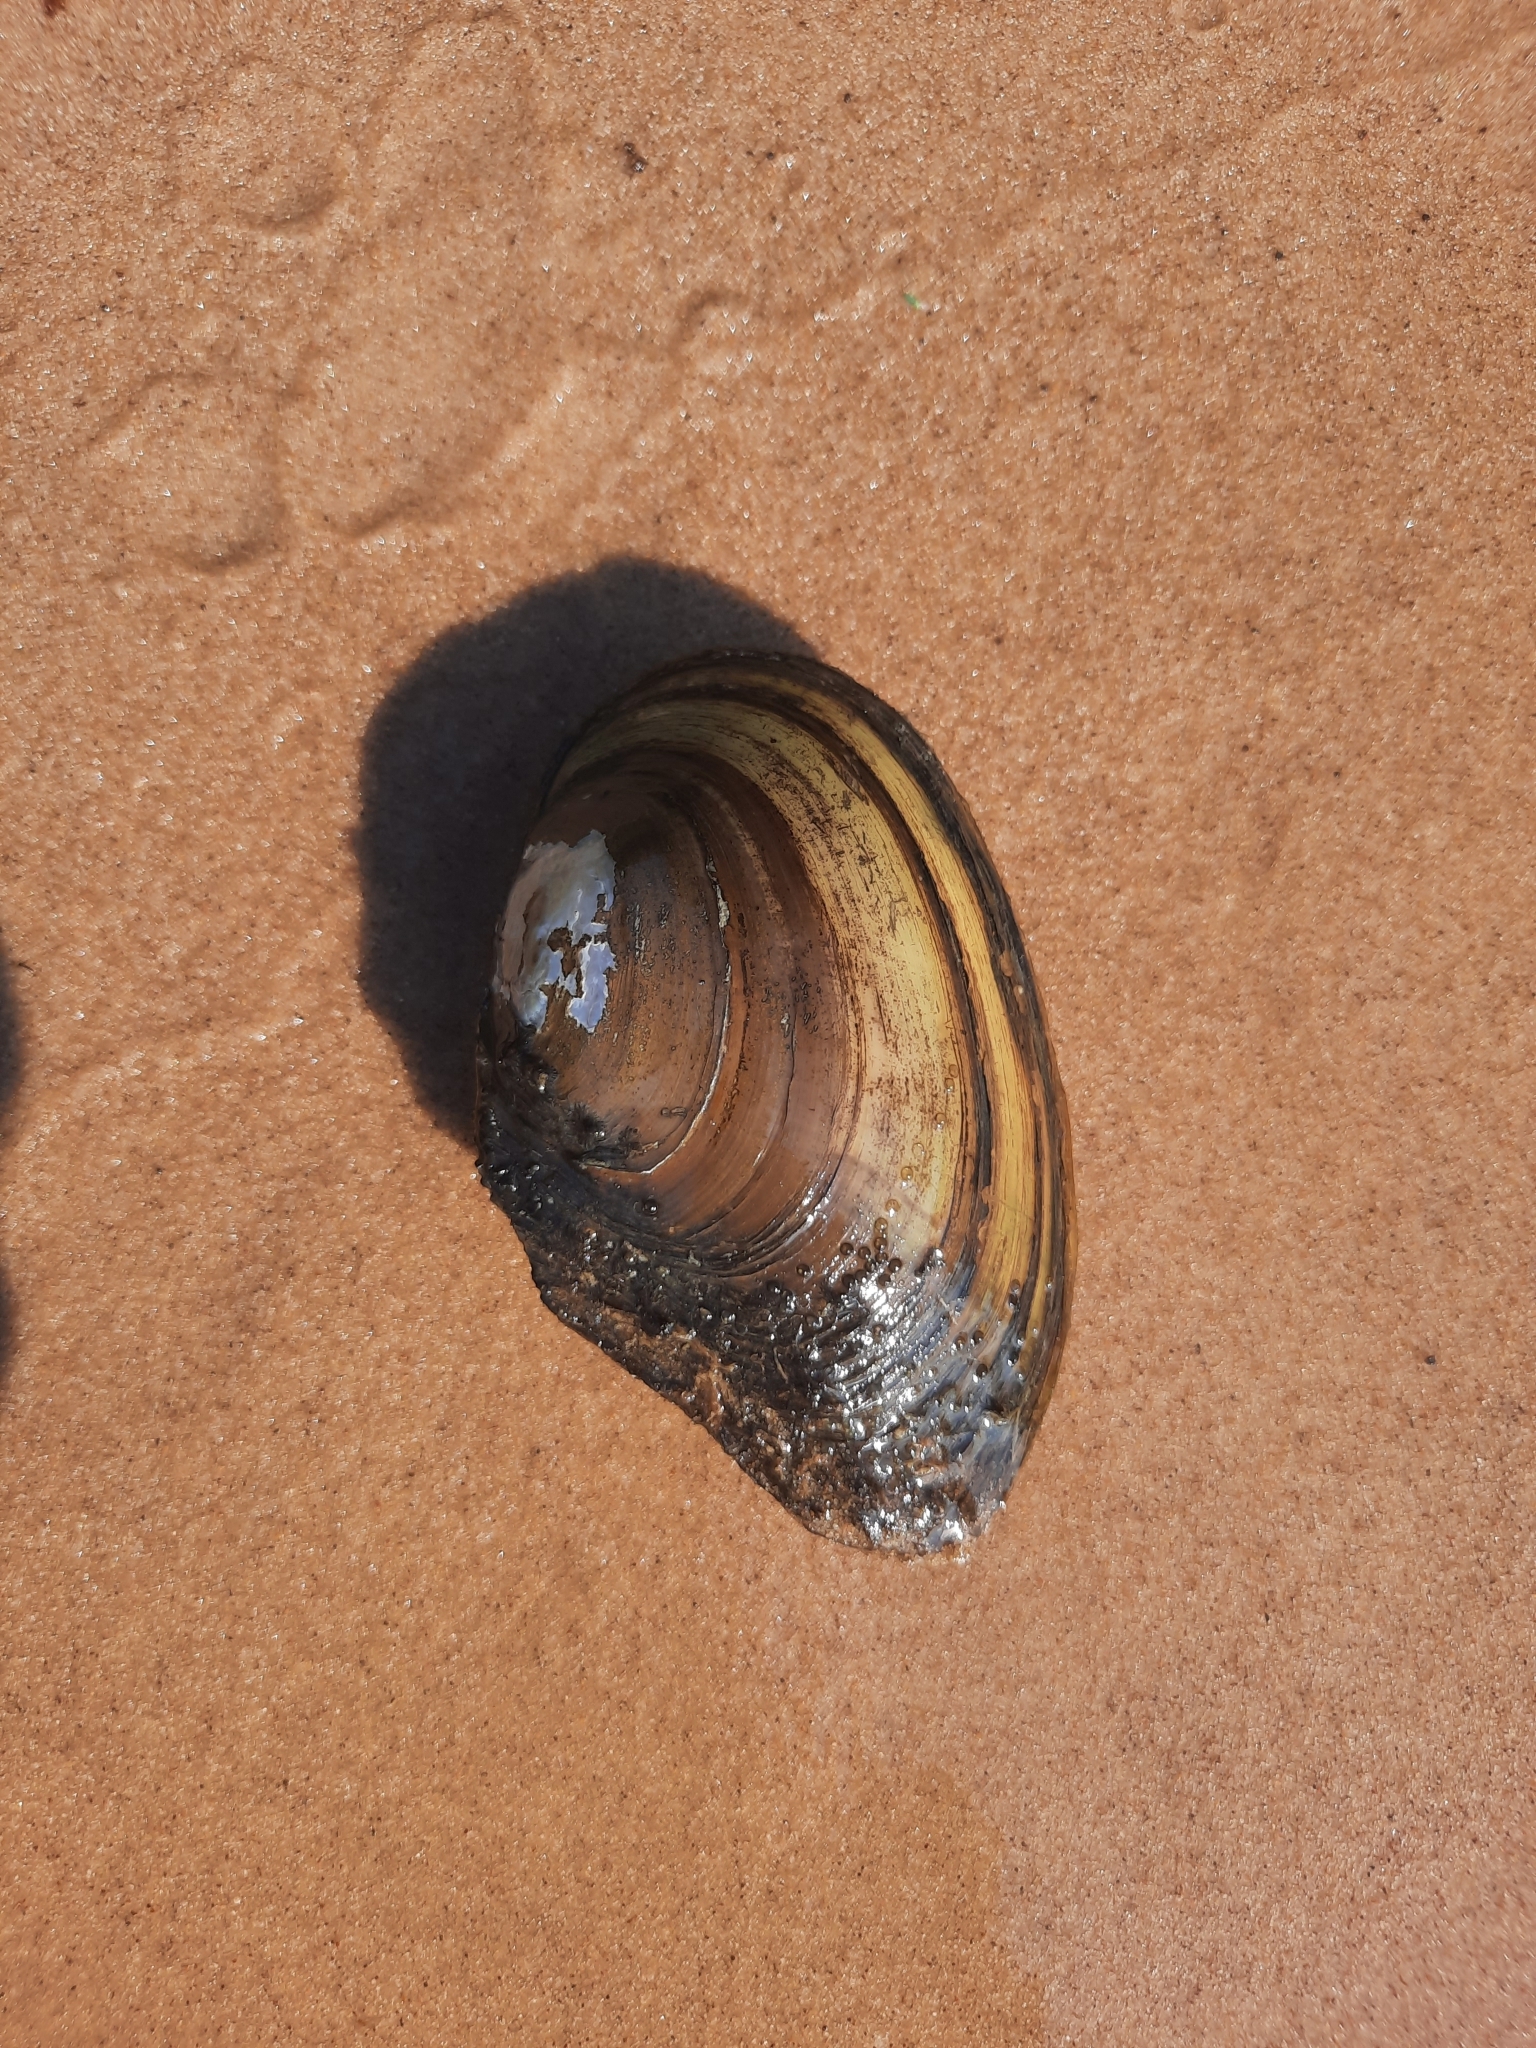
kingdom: Animalia
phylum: Mollusca
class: Bivalvia
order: Unionida
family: Unionidae
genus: Anodonta
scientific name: Anodonta anatina
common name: Duck mussel
